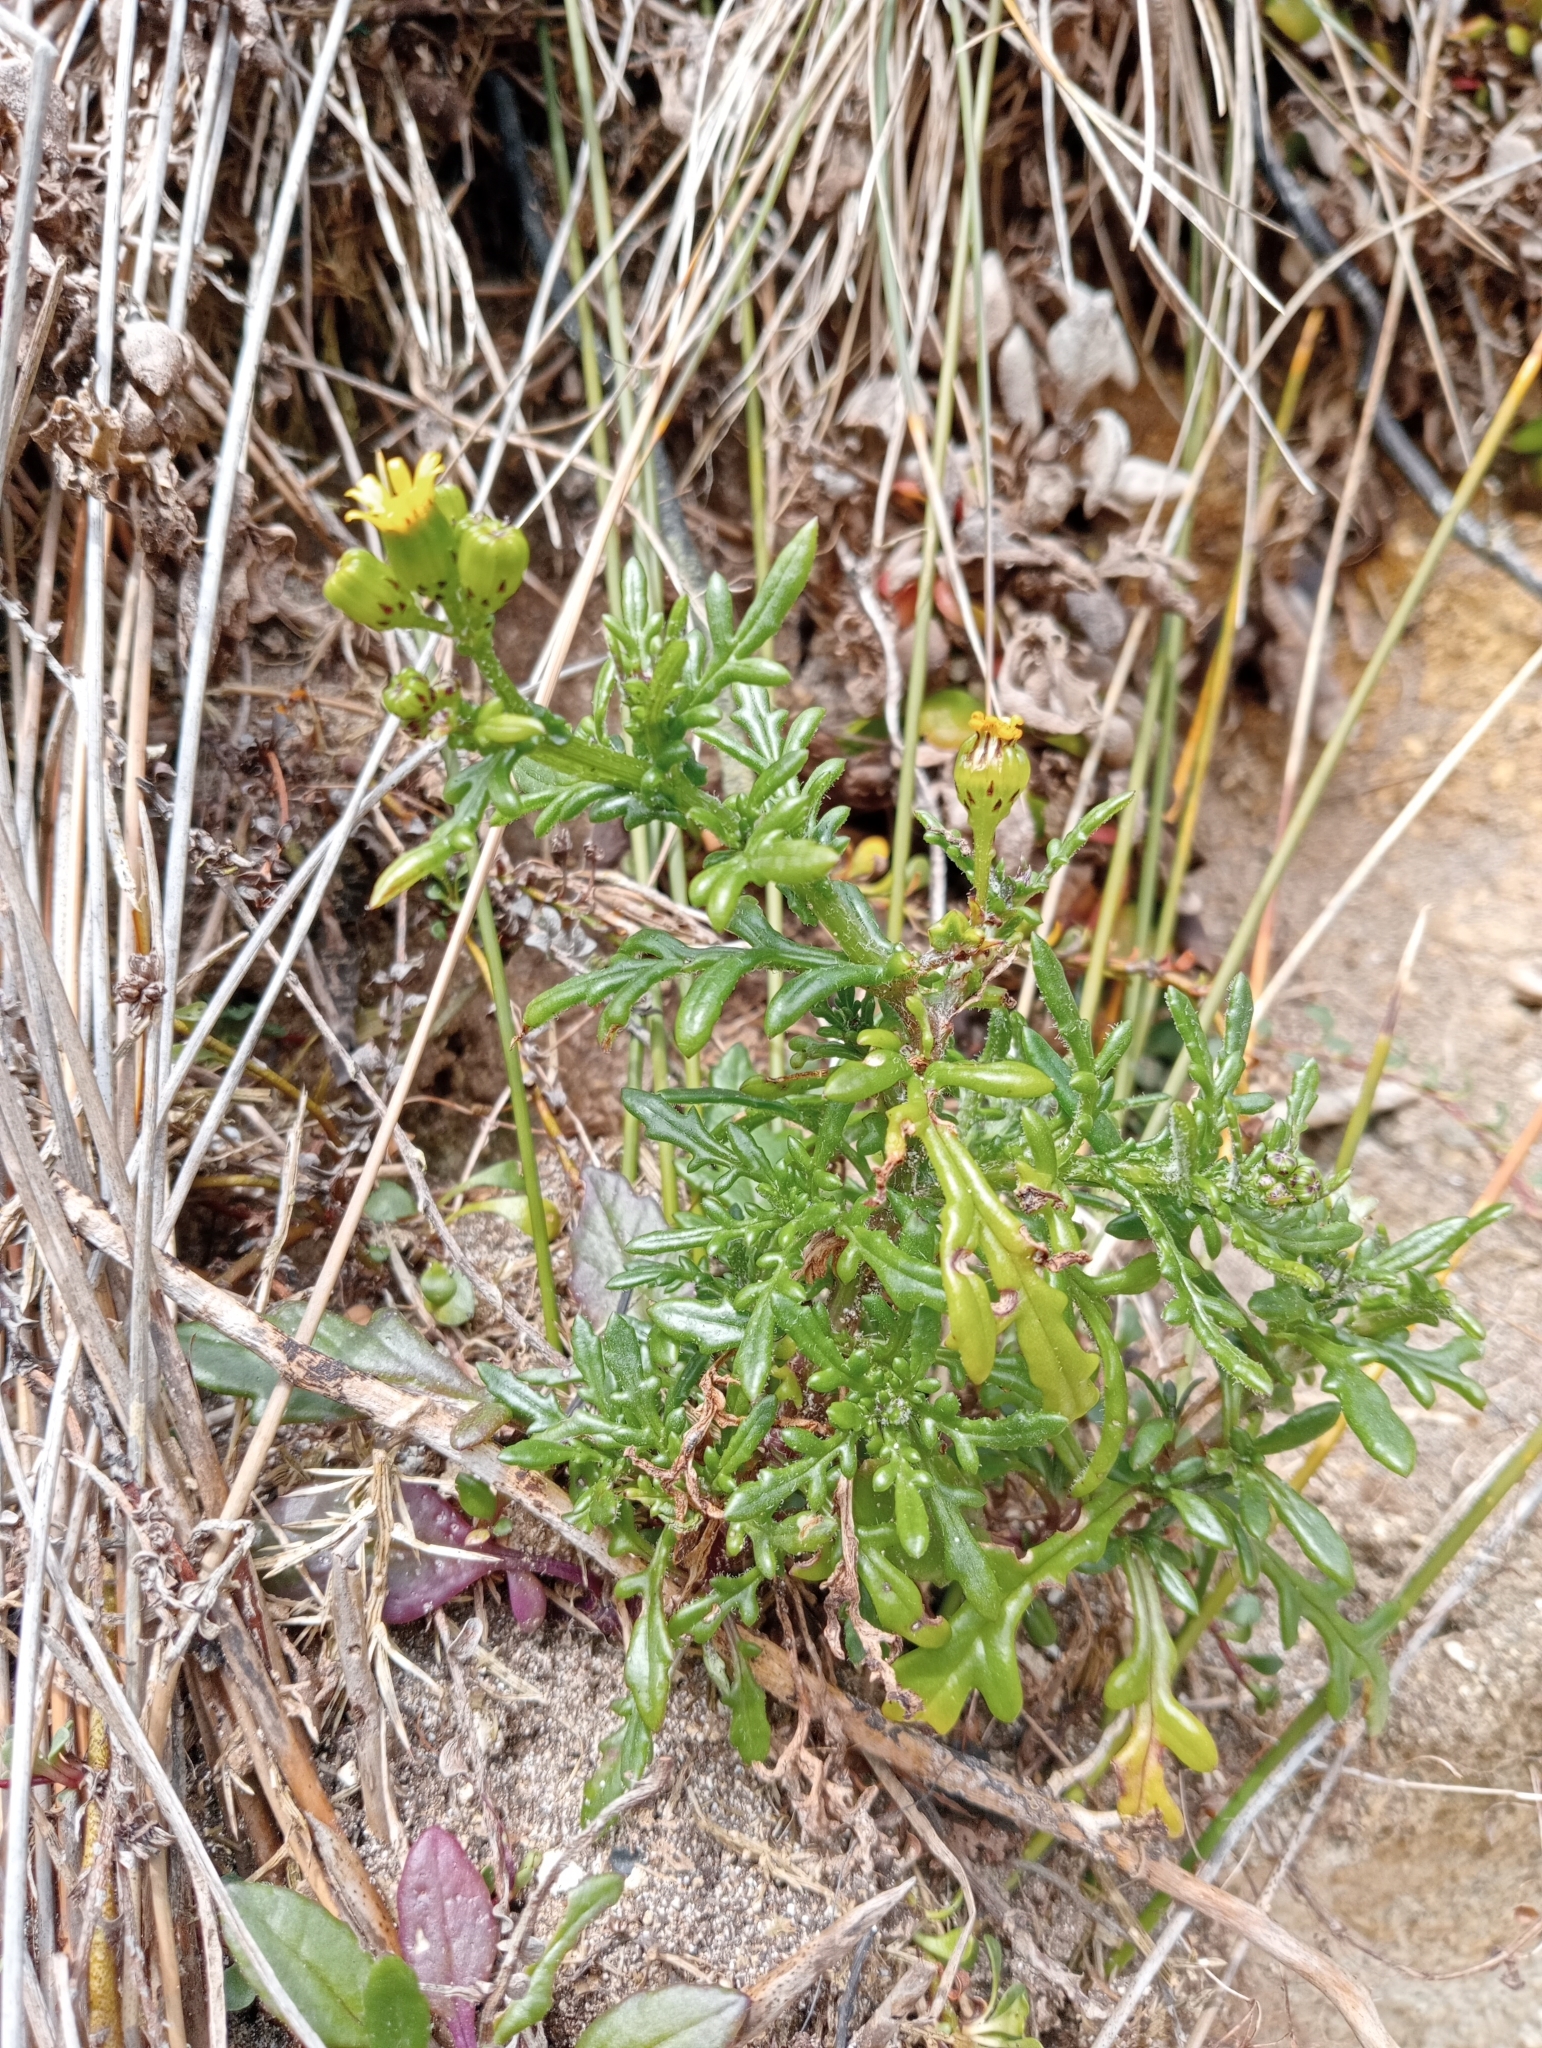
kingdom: Plantae
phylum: Tracheophyta
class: Magnoliopsida
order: Asterales
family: Asteraceae
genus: Senecio
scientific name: Senecio lautus
